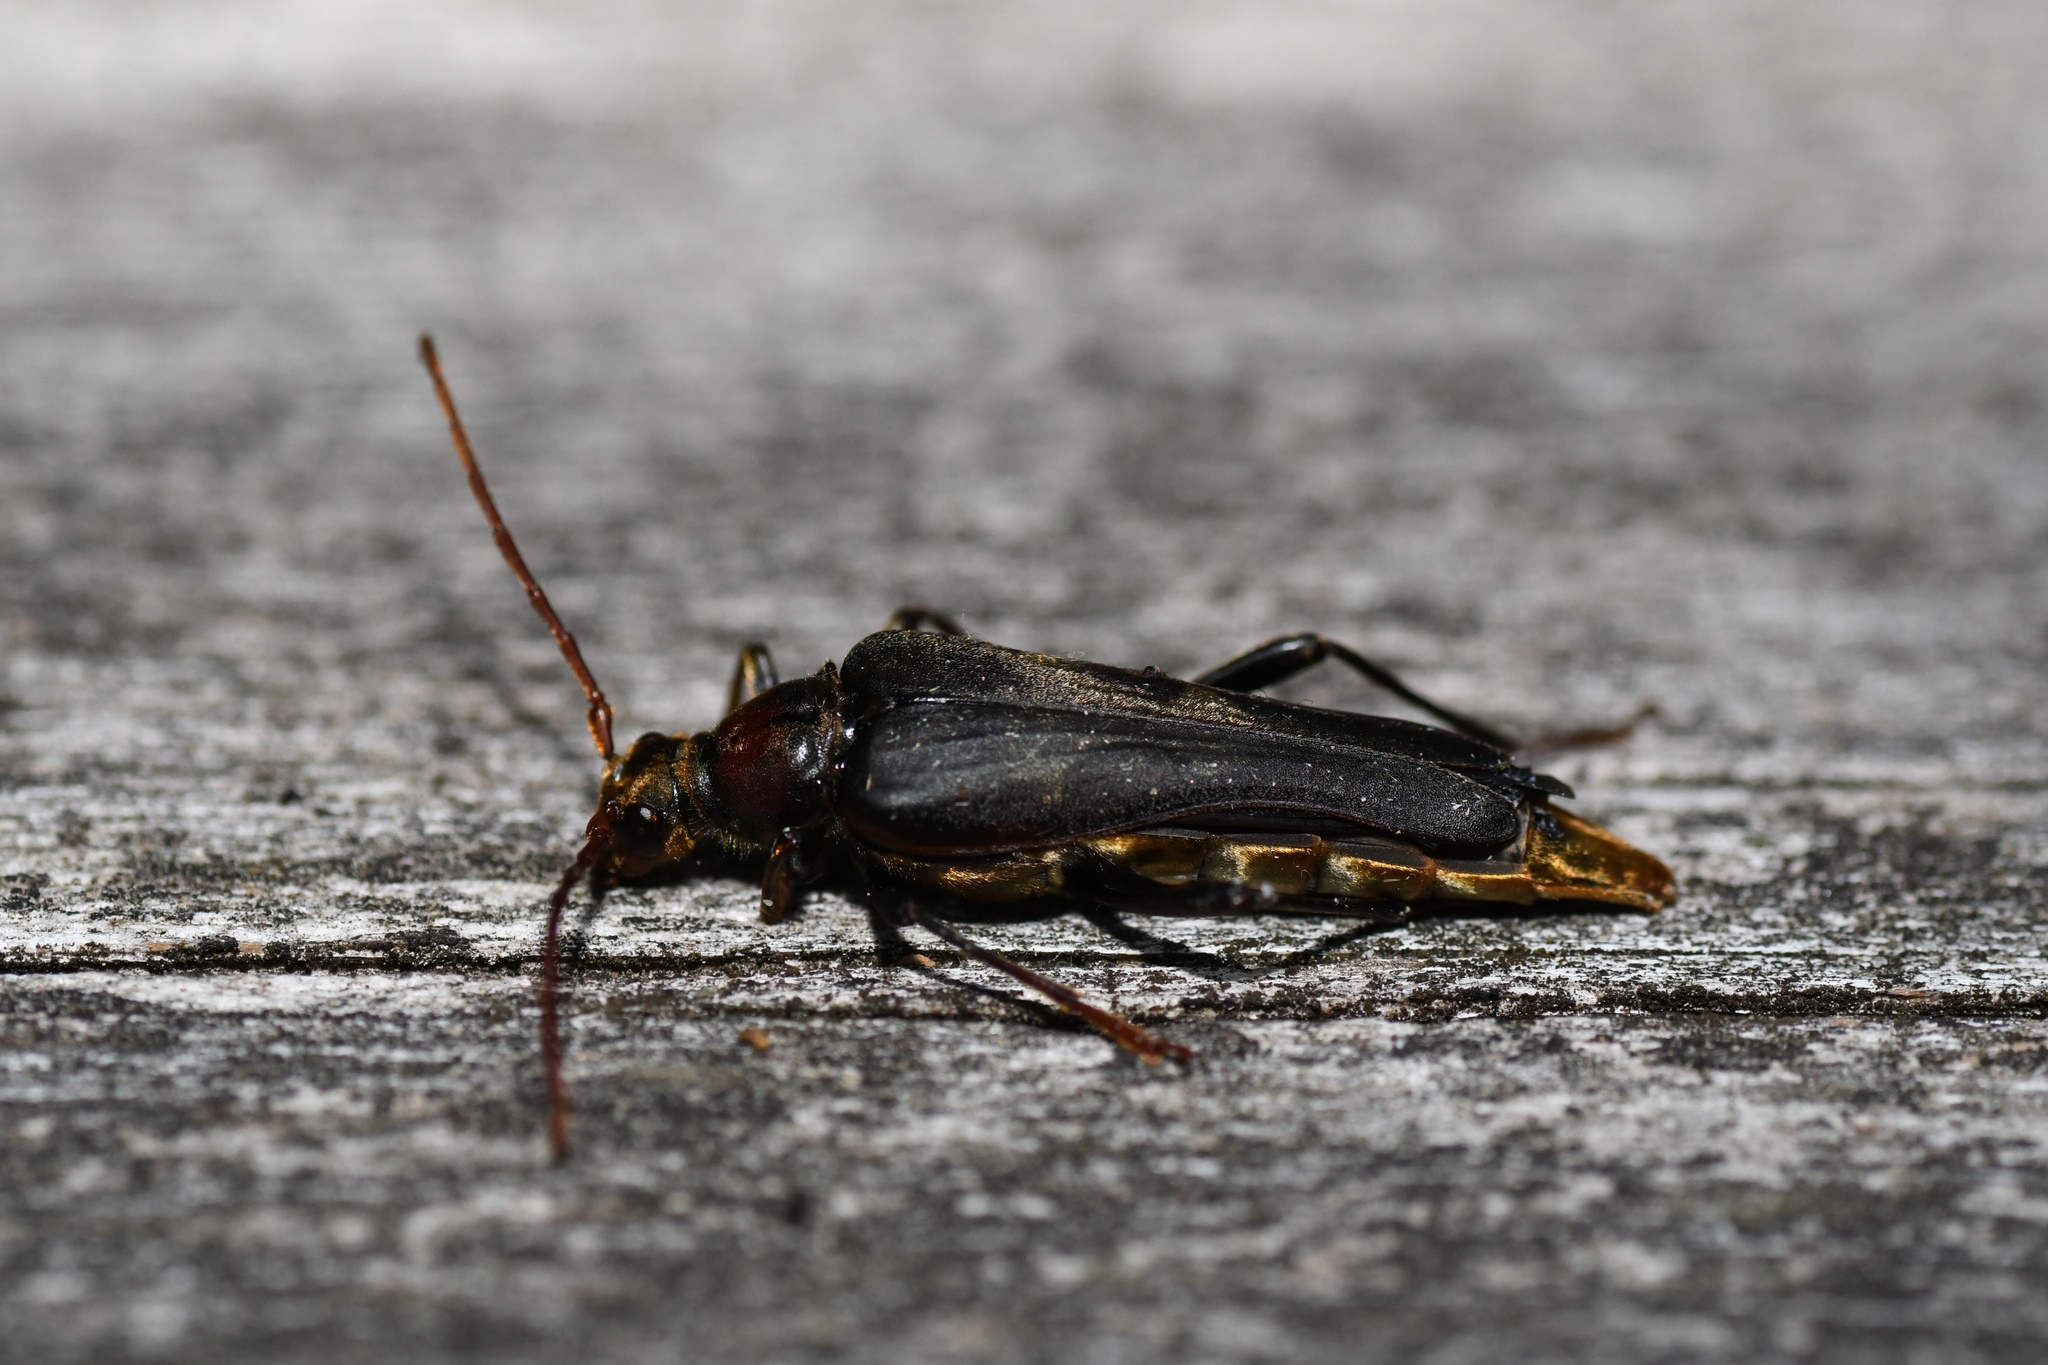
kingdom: Animalia
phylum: Arthropoda
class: Insecta
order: Coleoptera
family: Cerambycidae
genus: Bellamira
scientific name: Bellamira scalaris
